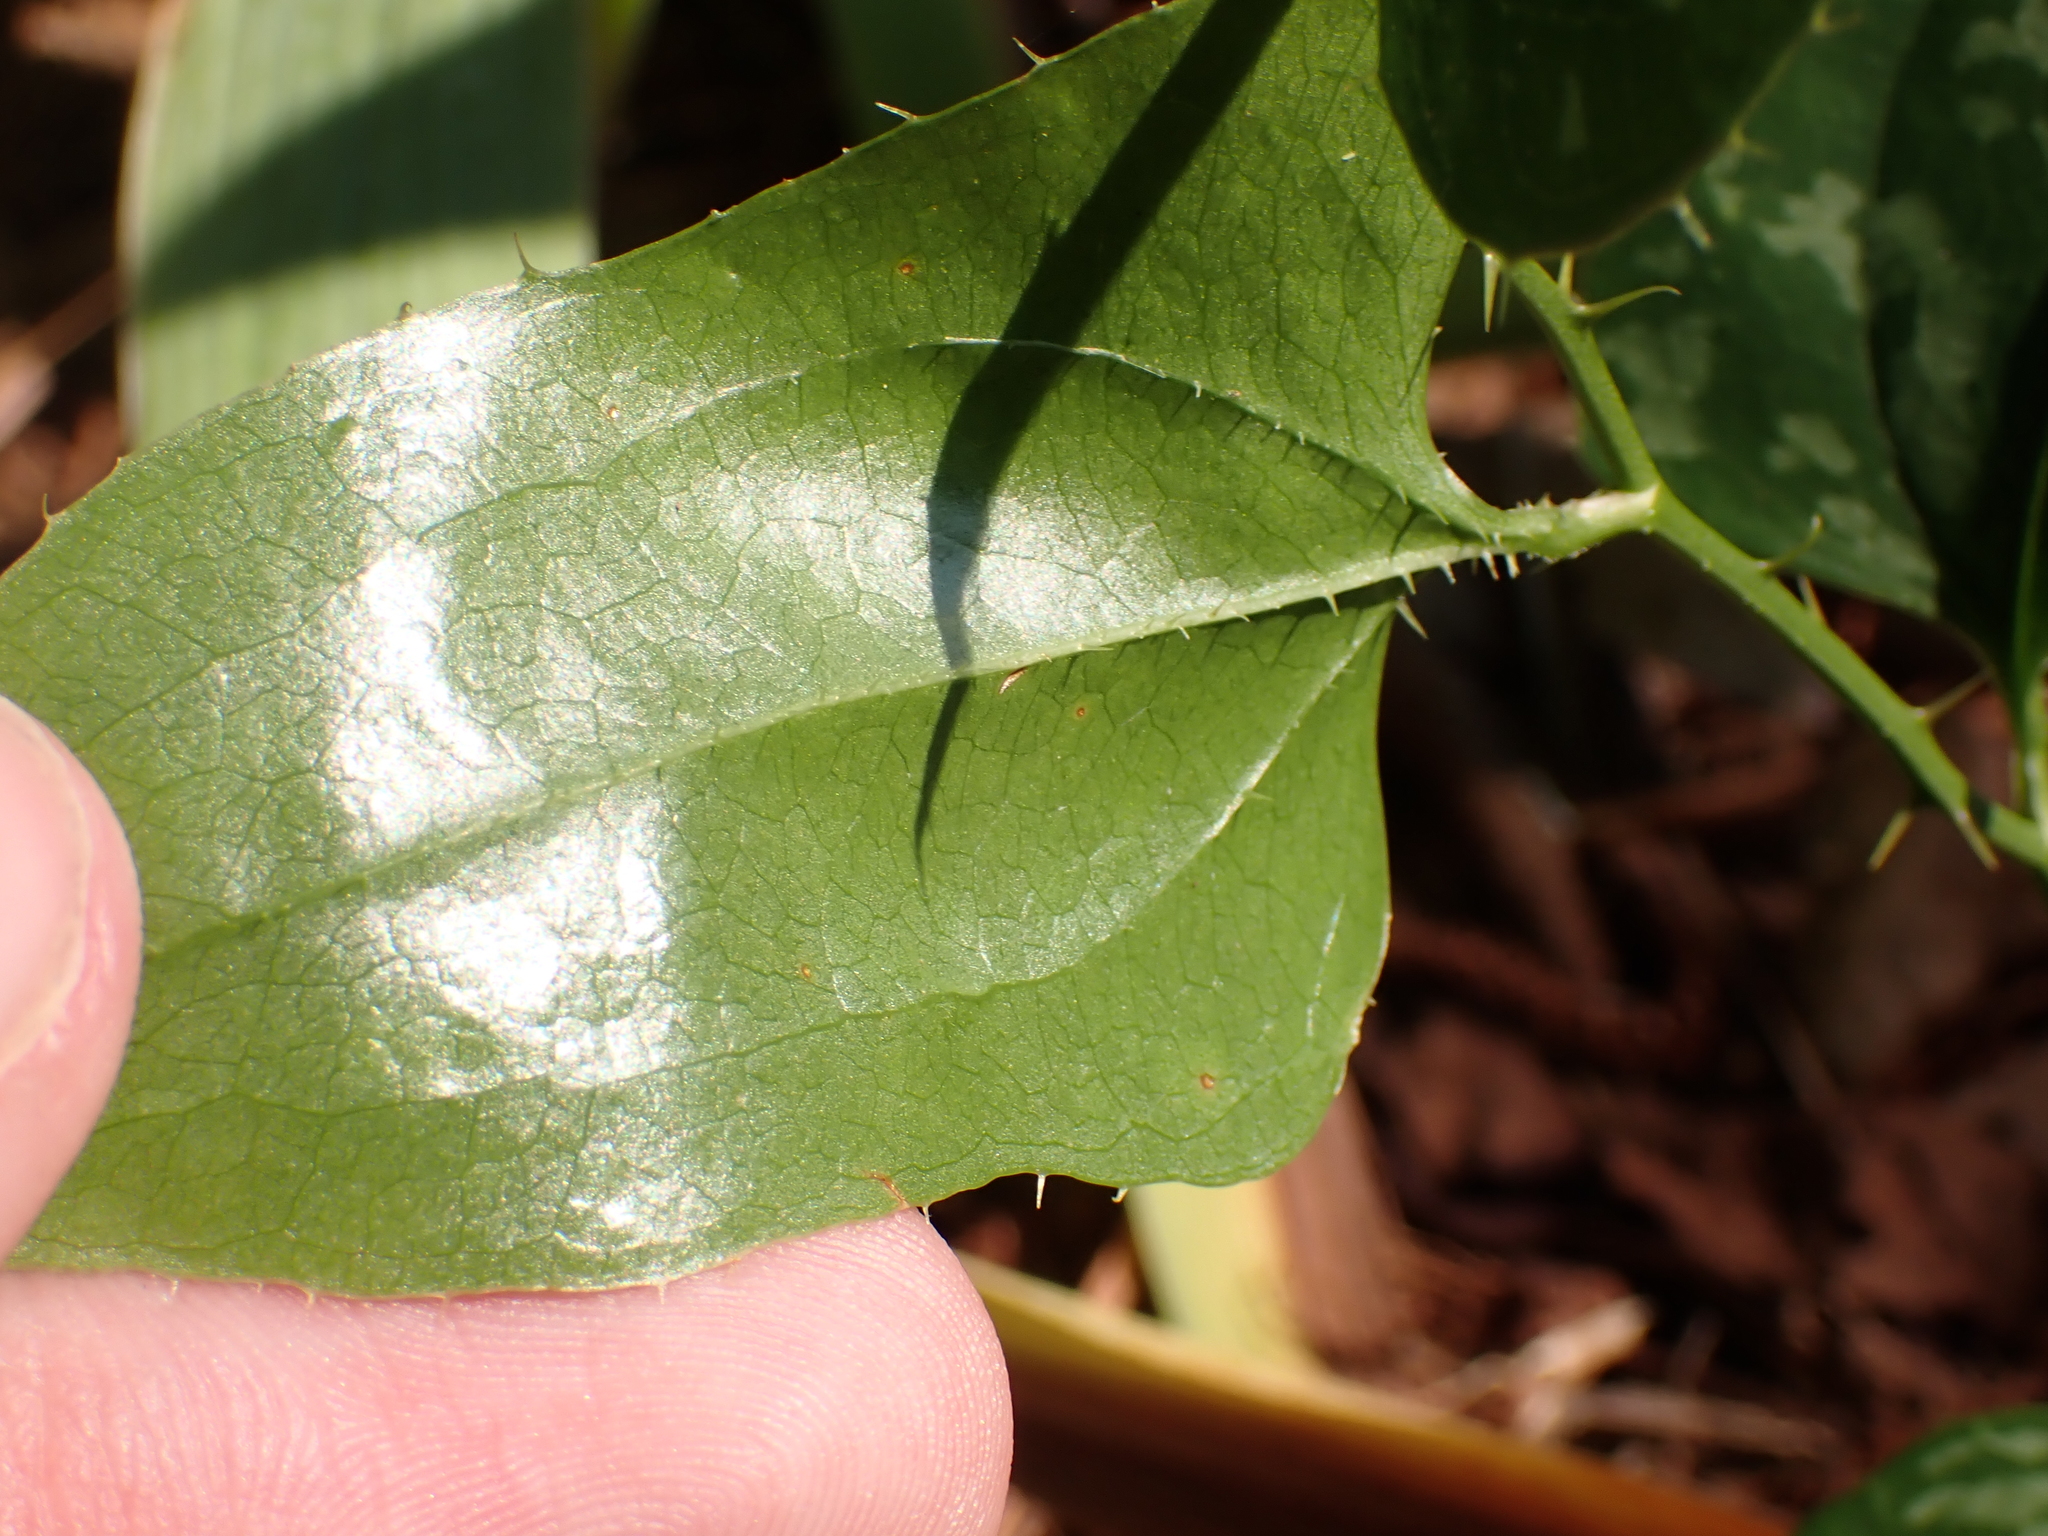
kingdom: Plantae
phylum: Tracheophyta
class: Liliopsida
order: Liliales
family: Smilacaceae
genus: Smilax
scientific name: Smilax bona-nox
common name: Catbrier
